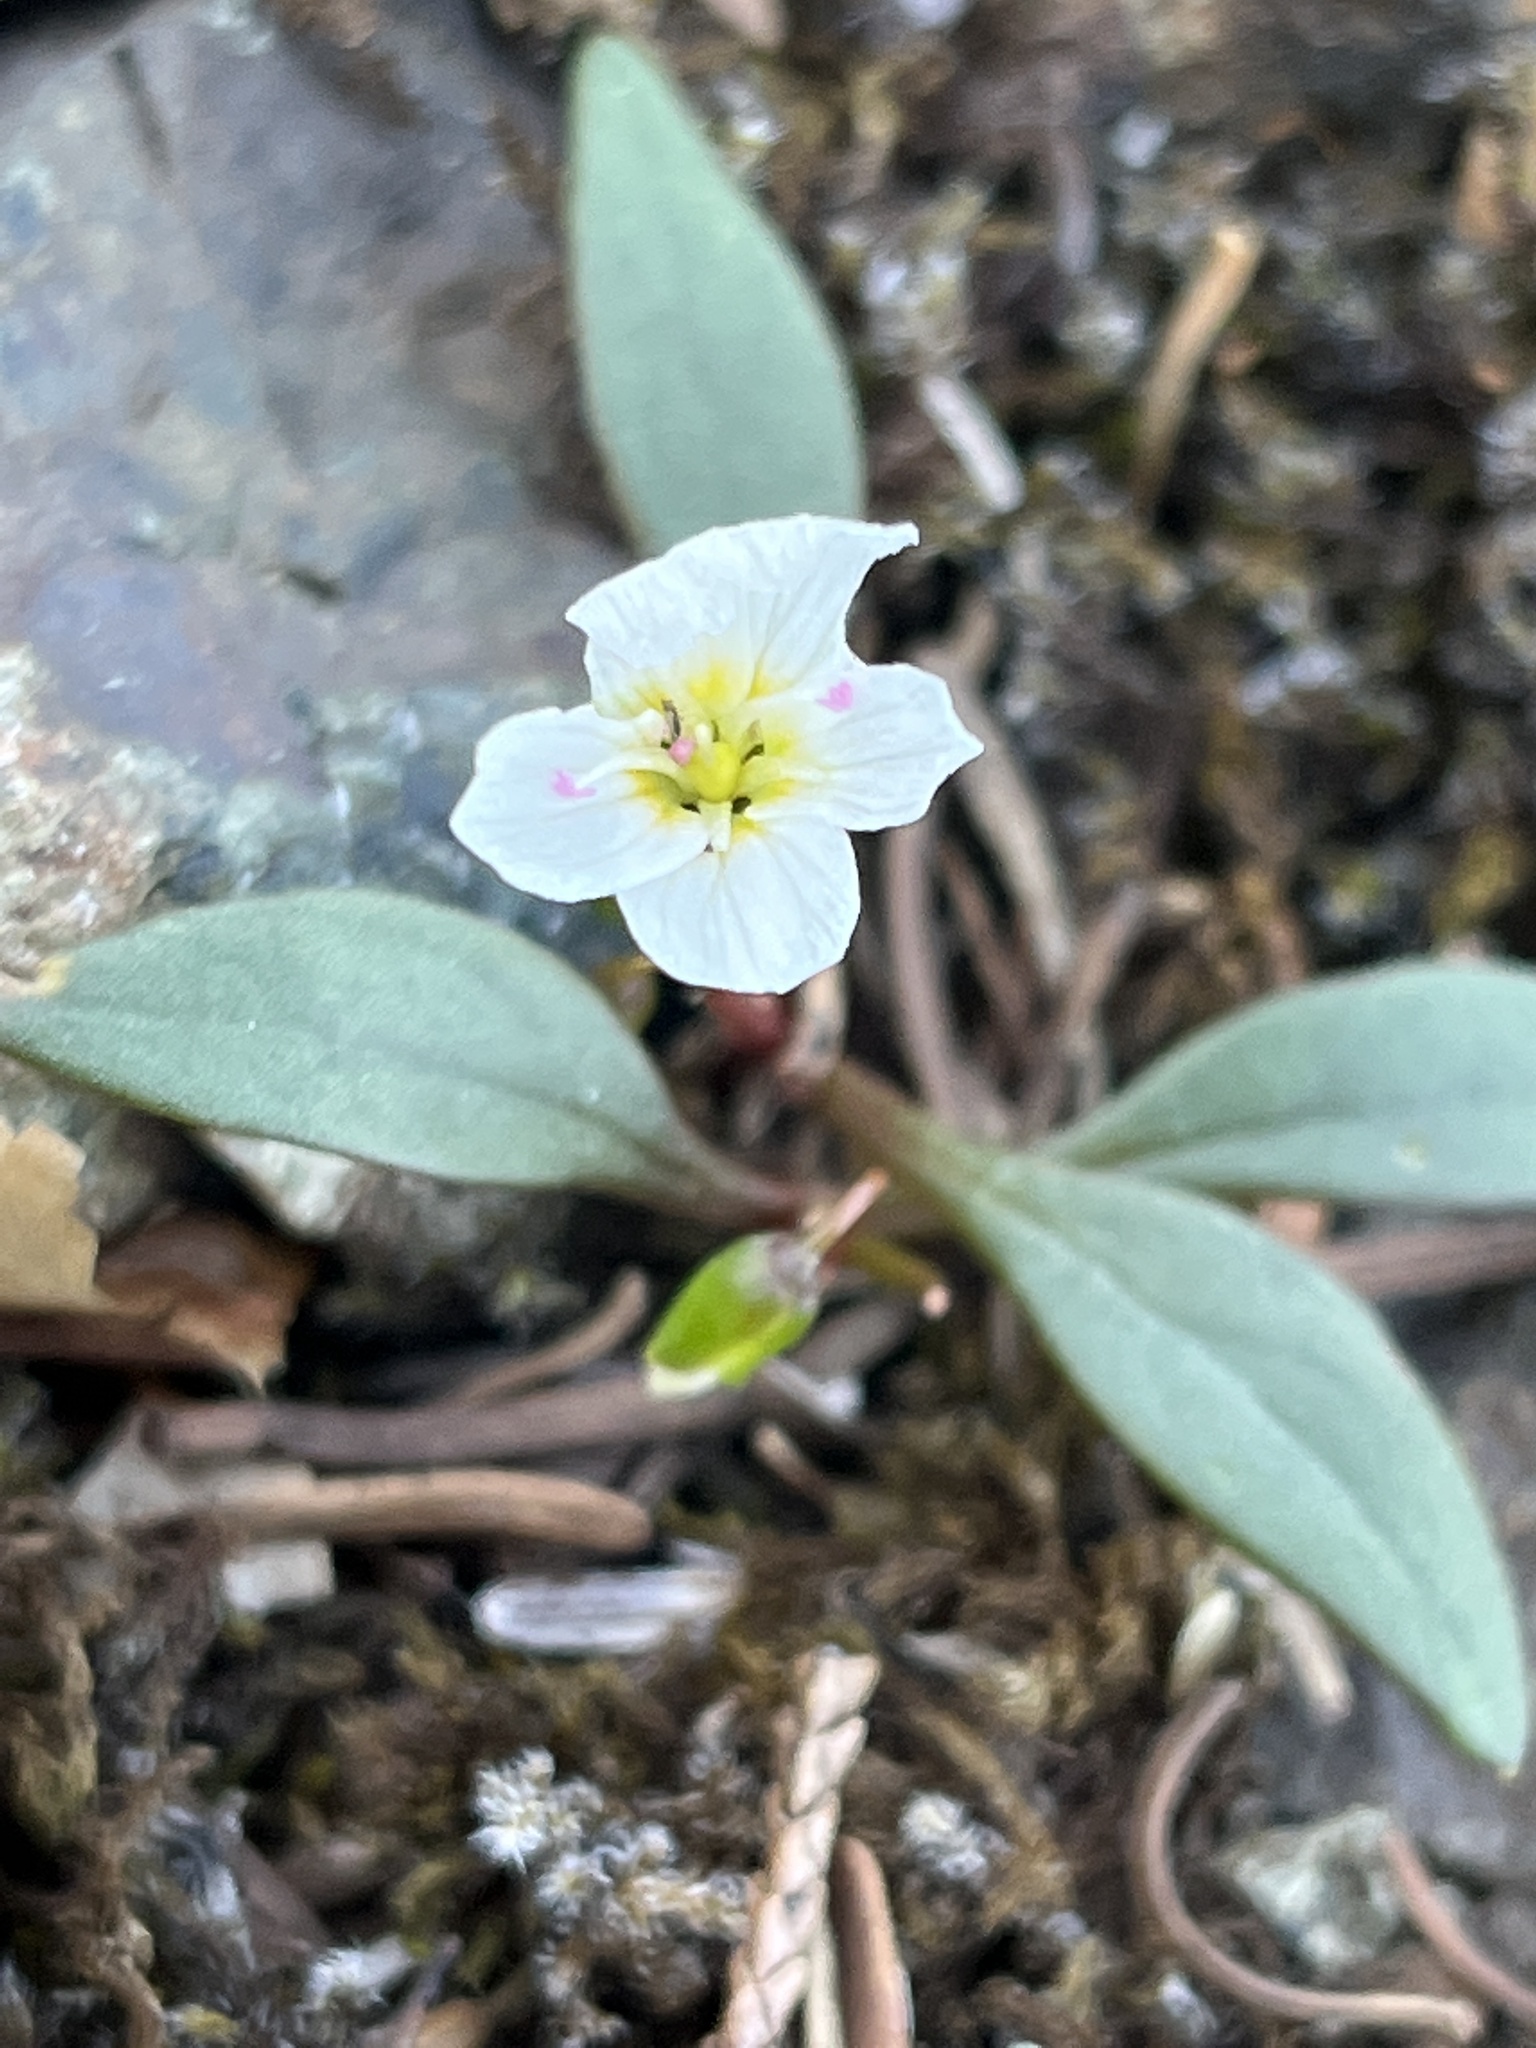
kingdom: Plantae
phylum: Tracheophyta
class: Magnoliopsida
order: Caryophyllales
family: Montiaceae
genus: Claytonia
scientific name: Claytonia multiscapa
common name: Lanceleaf springbeauty
